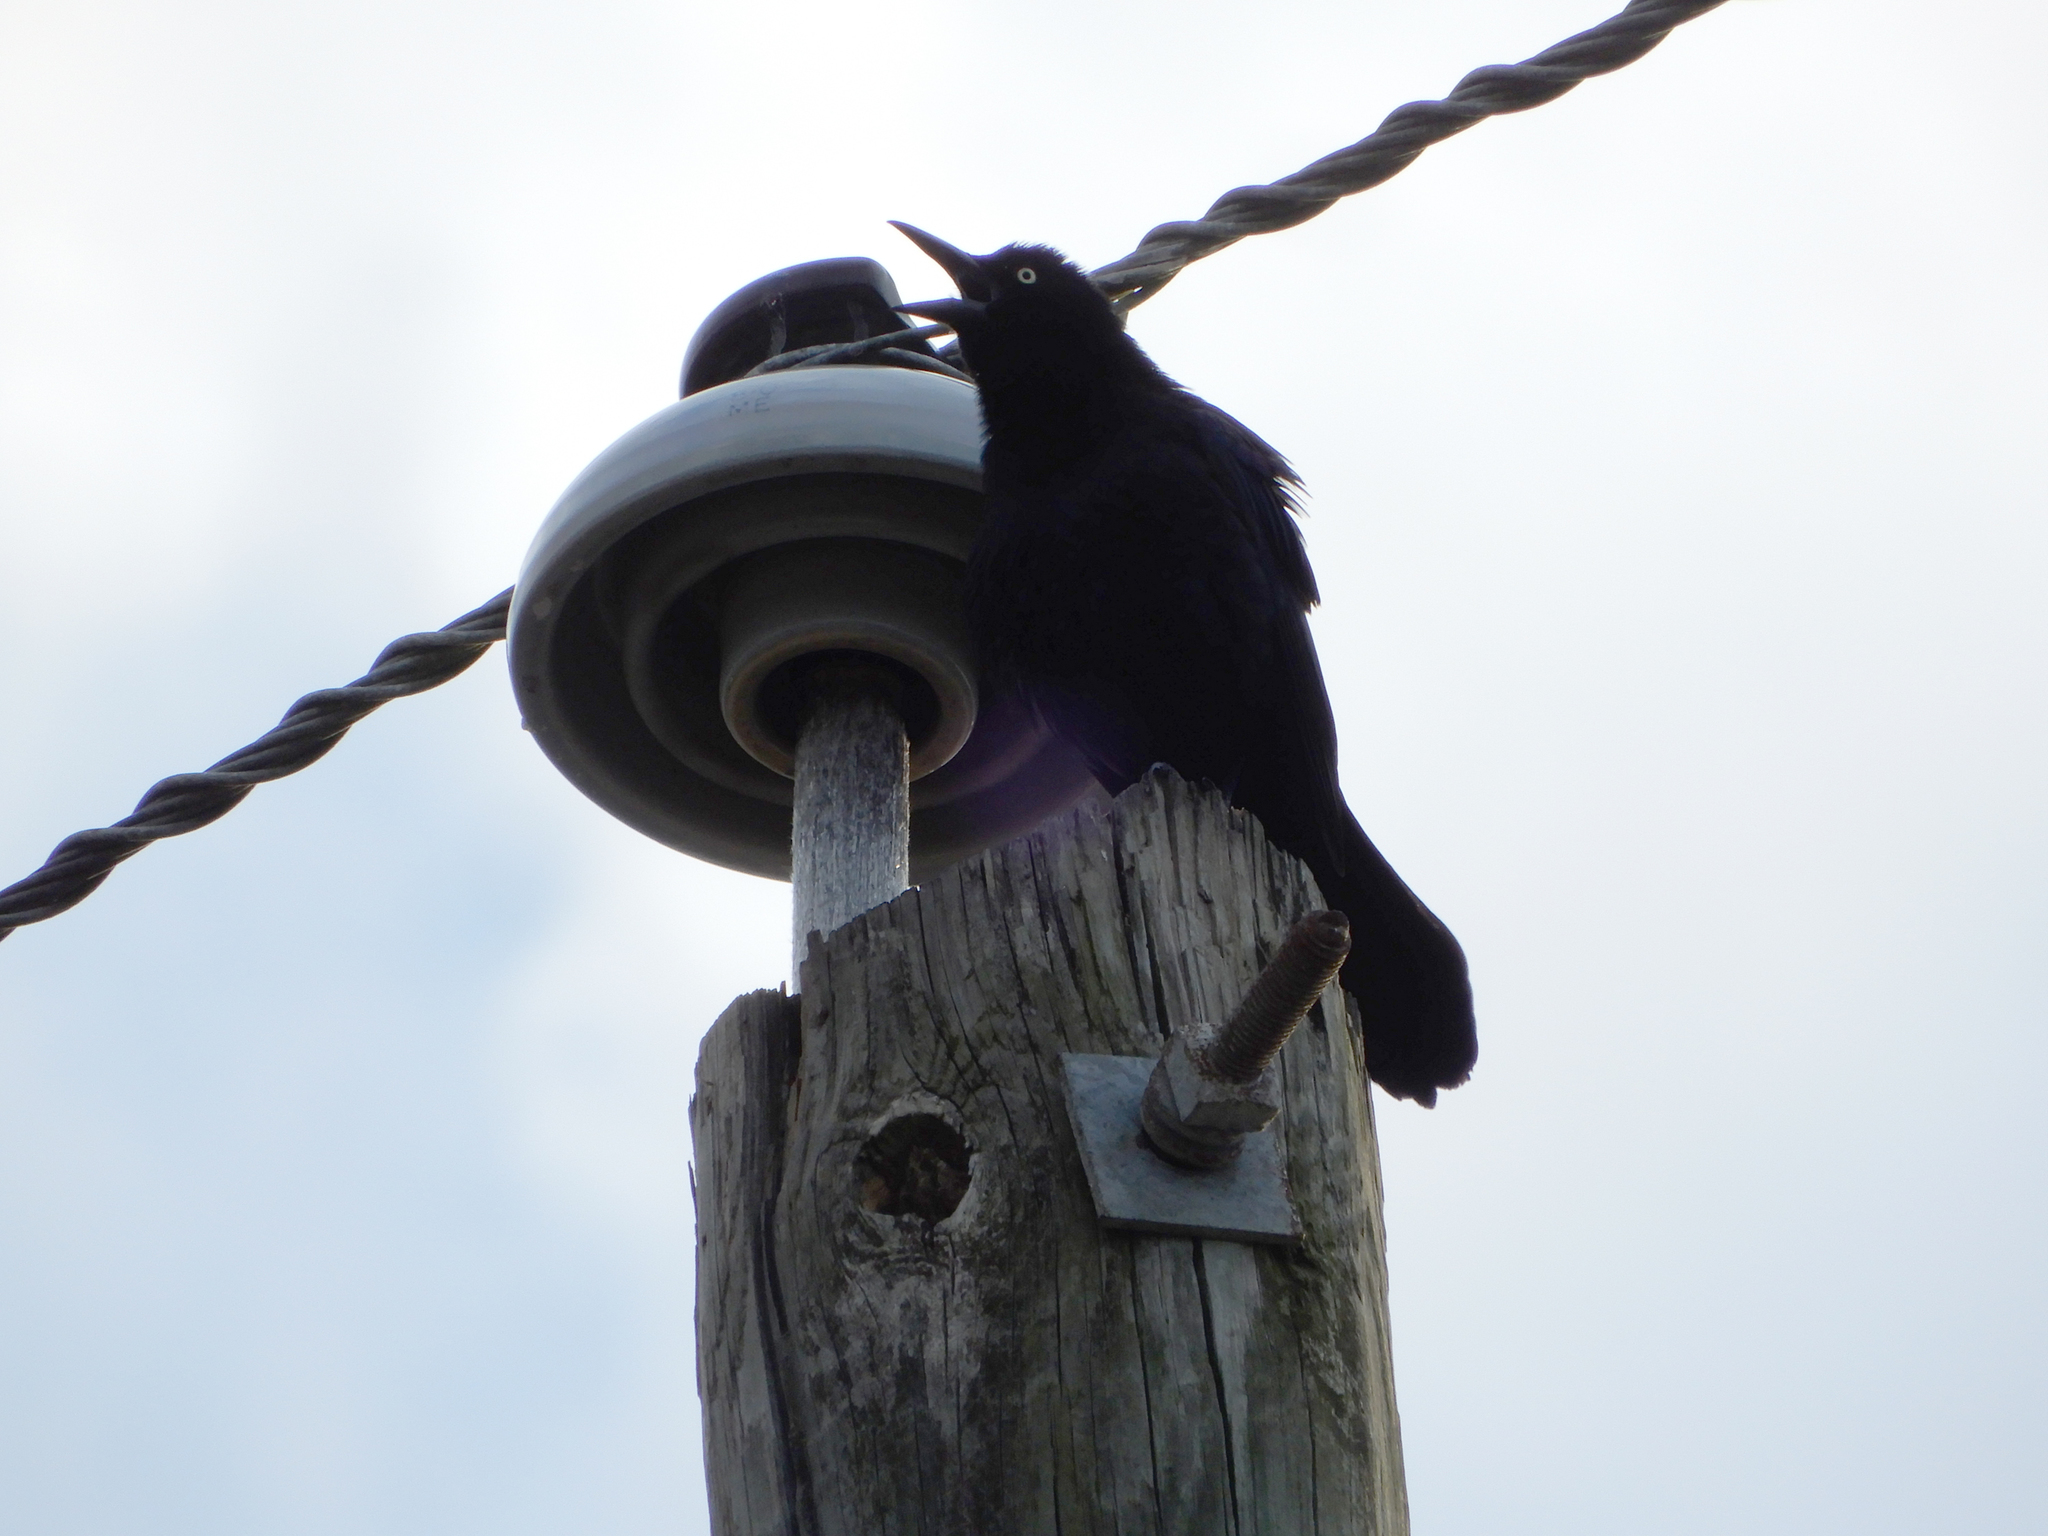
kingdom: Animalia
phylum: Chordata
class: Aves
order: Passeriformes
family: Icteridae
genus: Quiscalus
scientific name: Quiscalus quiscula
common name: Common grackle
